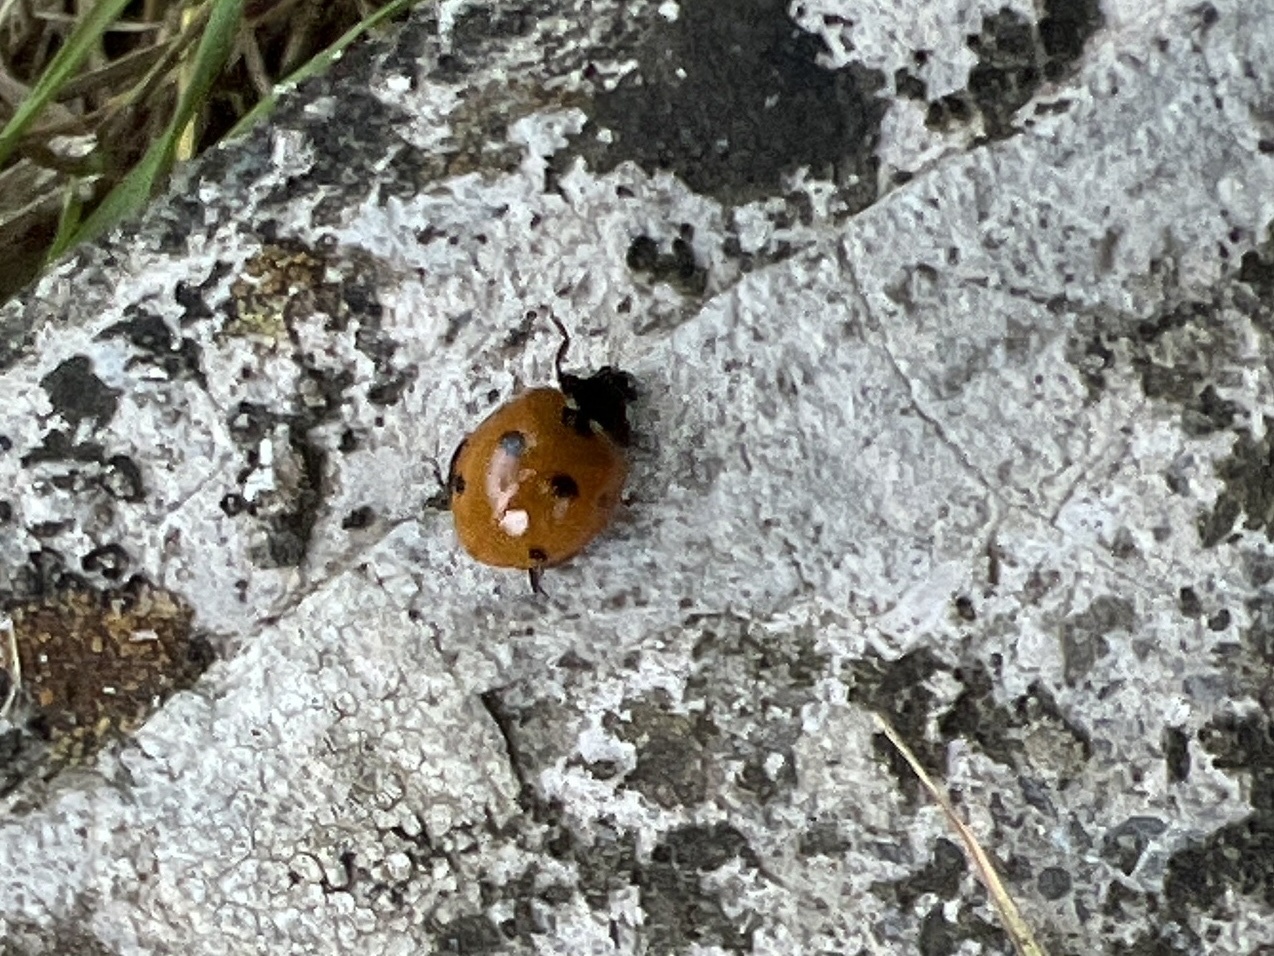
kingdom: Animalia
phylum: Arthropoda
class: Insecta
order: Coleoptera
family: Coccinellidae
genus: Coccinella
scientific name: Coccinella septempunctata
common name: Sevenspotted lady beetle
